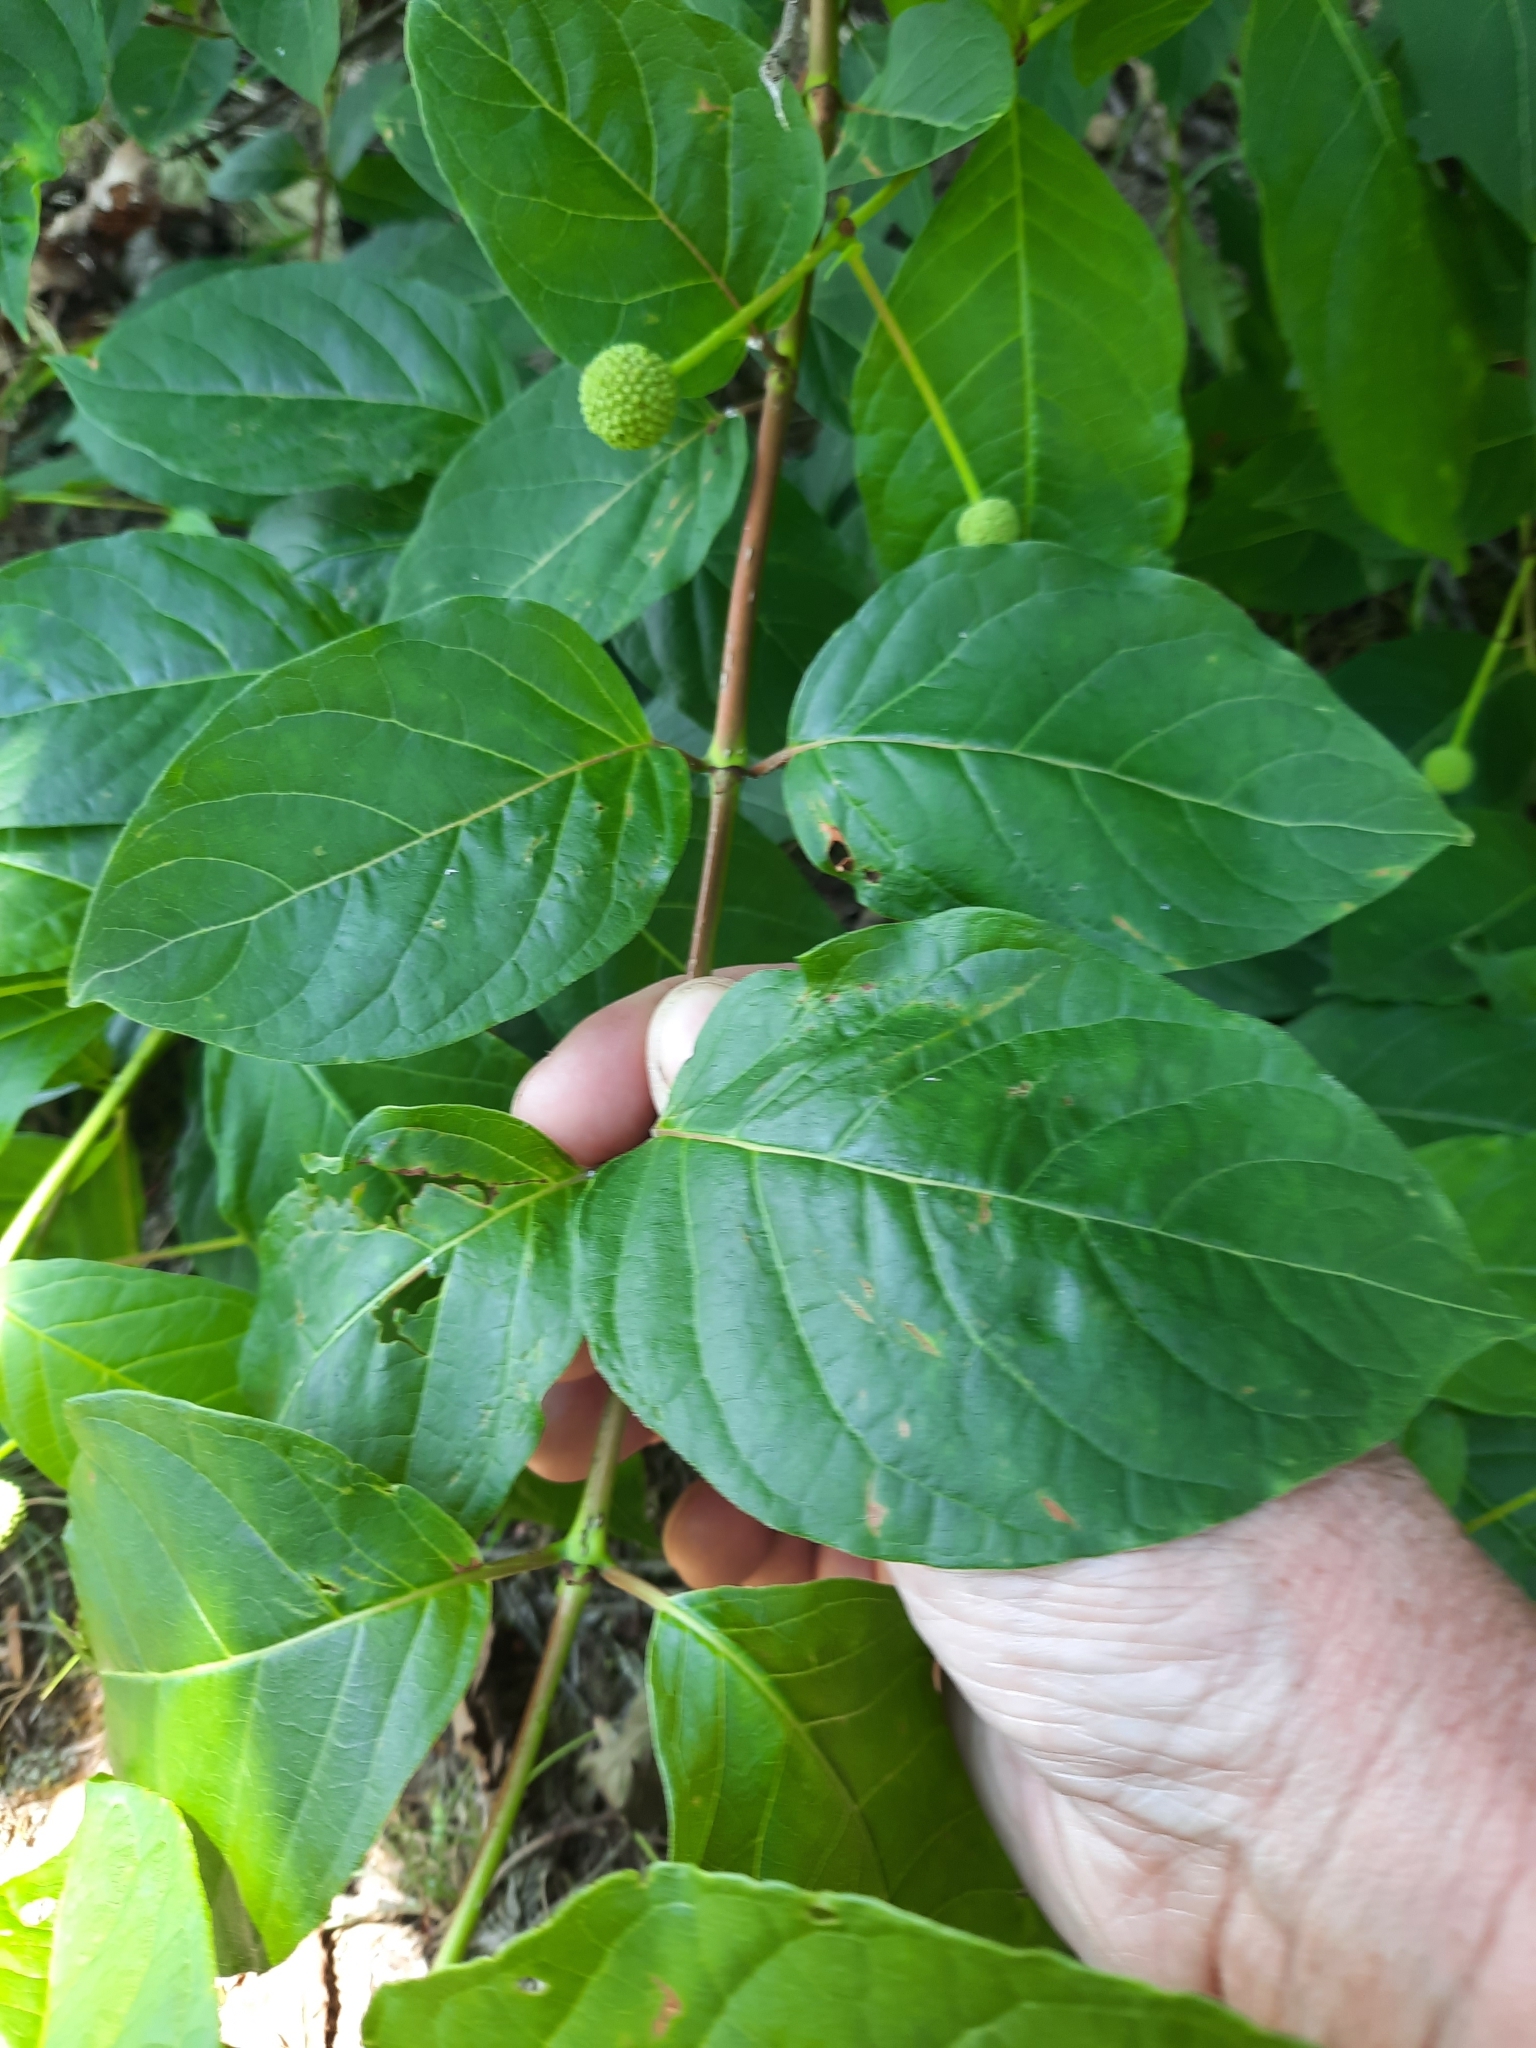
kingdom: Plantae
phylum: Tracheophyta
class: Magnoliopsida
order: Gentianales
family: Rubiaceae
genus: Cephalanthus
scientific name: Cephalanthus occidentalis
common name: Button-willow
